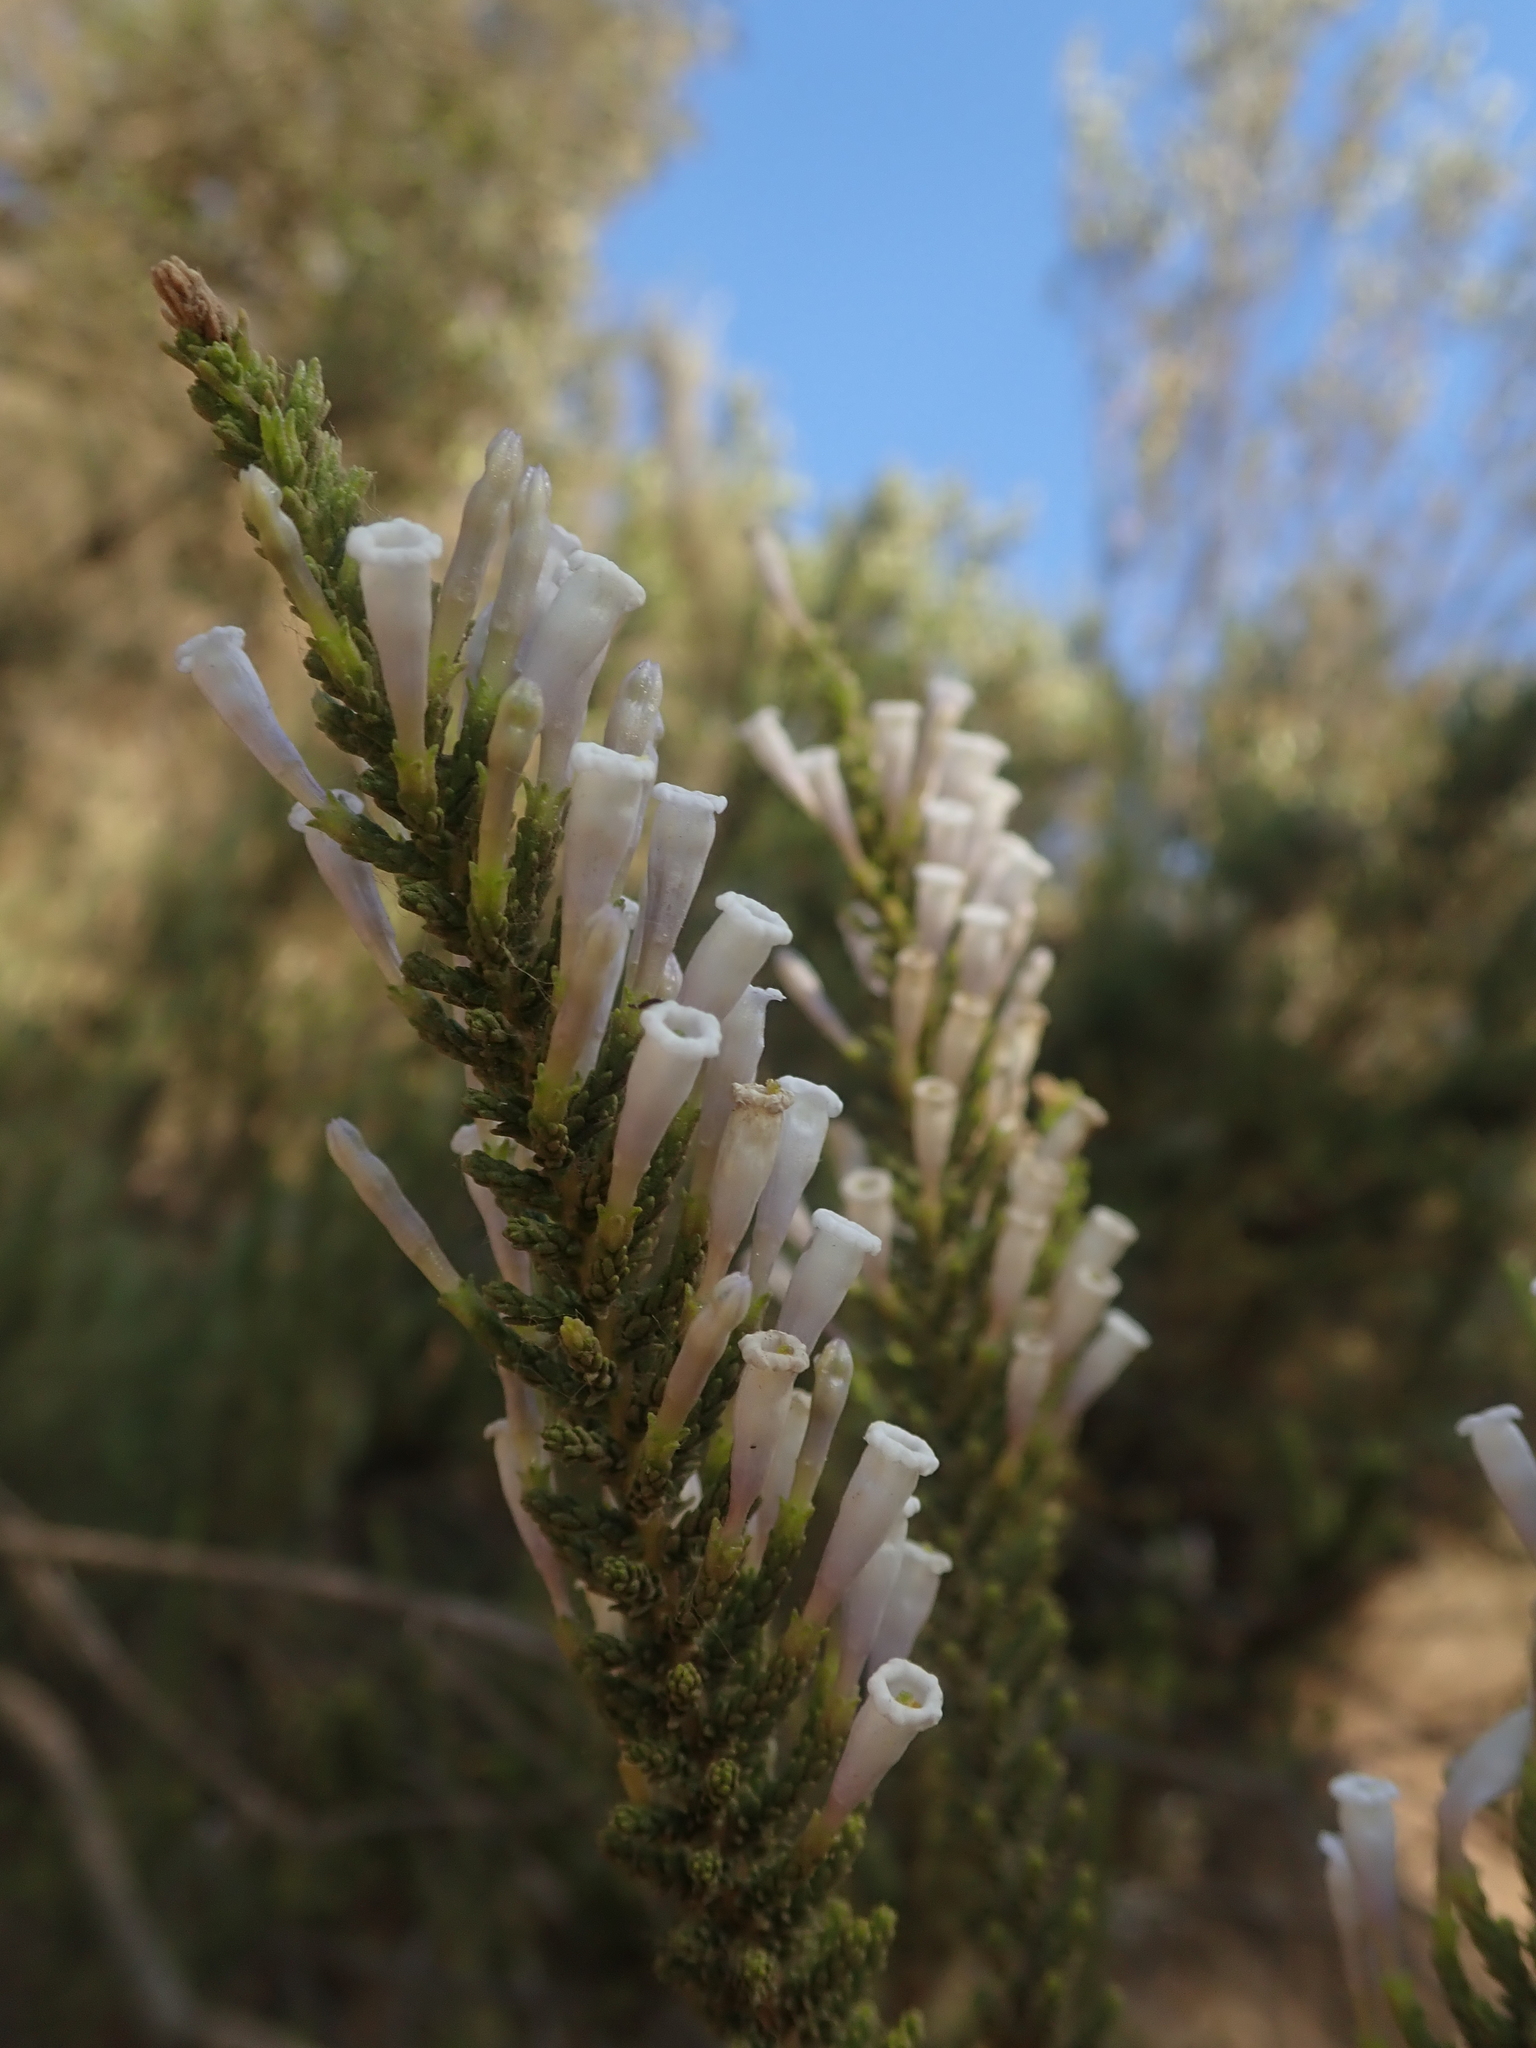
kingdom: Plantae
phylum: Tracheophyta
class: Magnoliopsida
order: Solanales
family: Solanaceae
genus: Fabiana
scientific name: Fabiana imbricata
